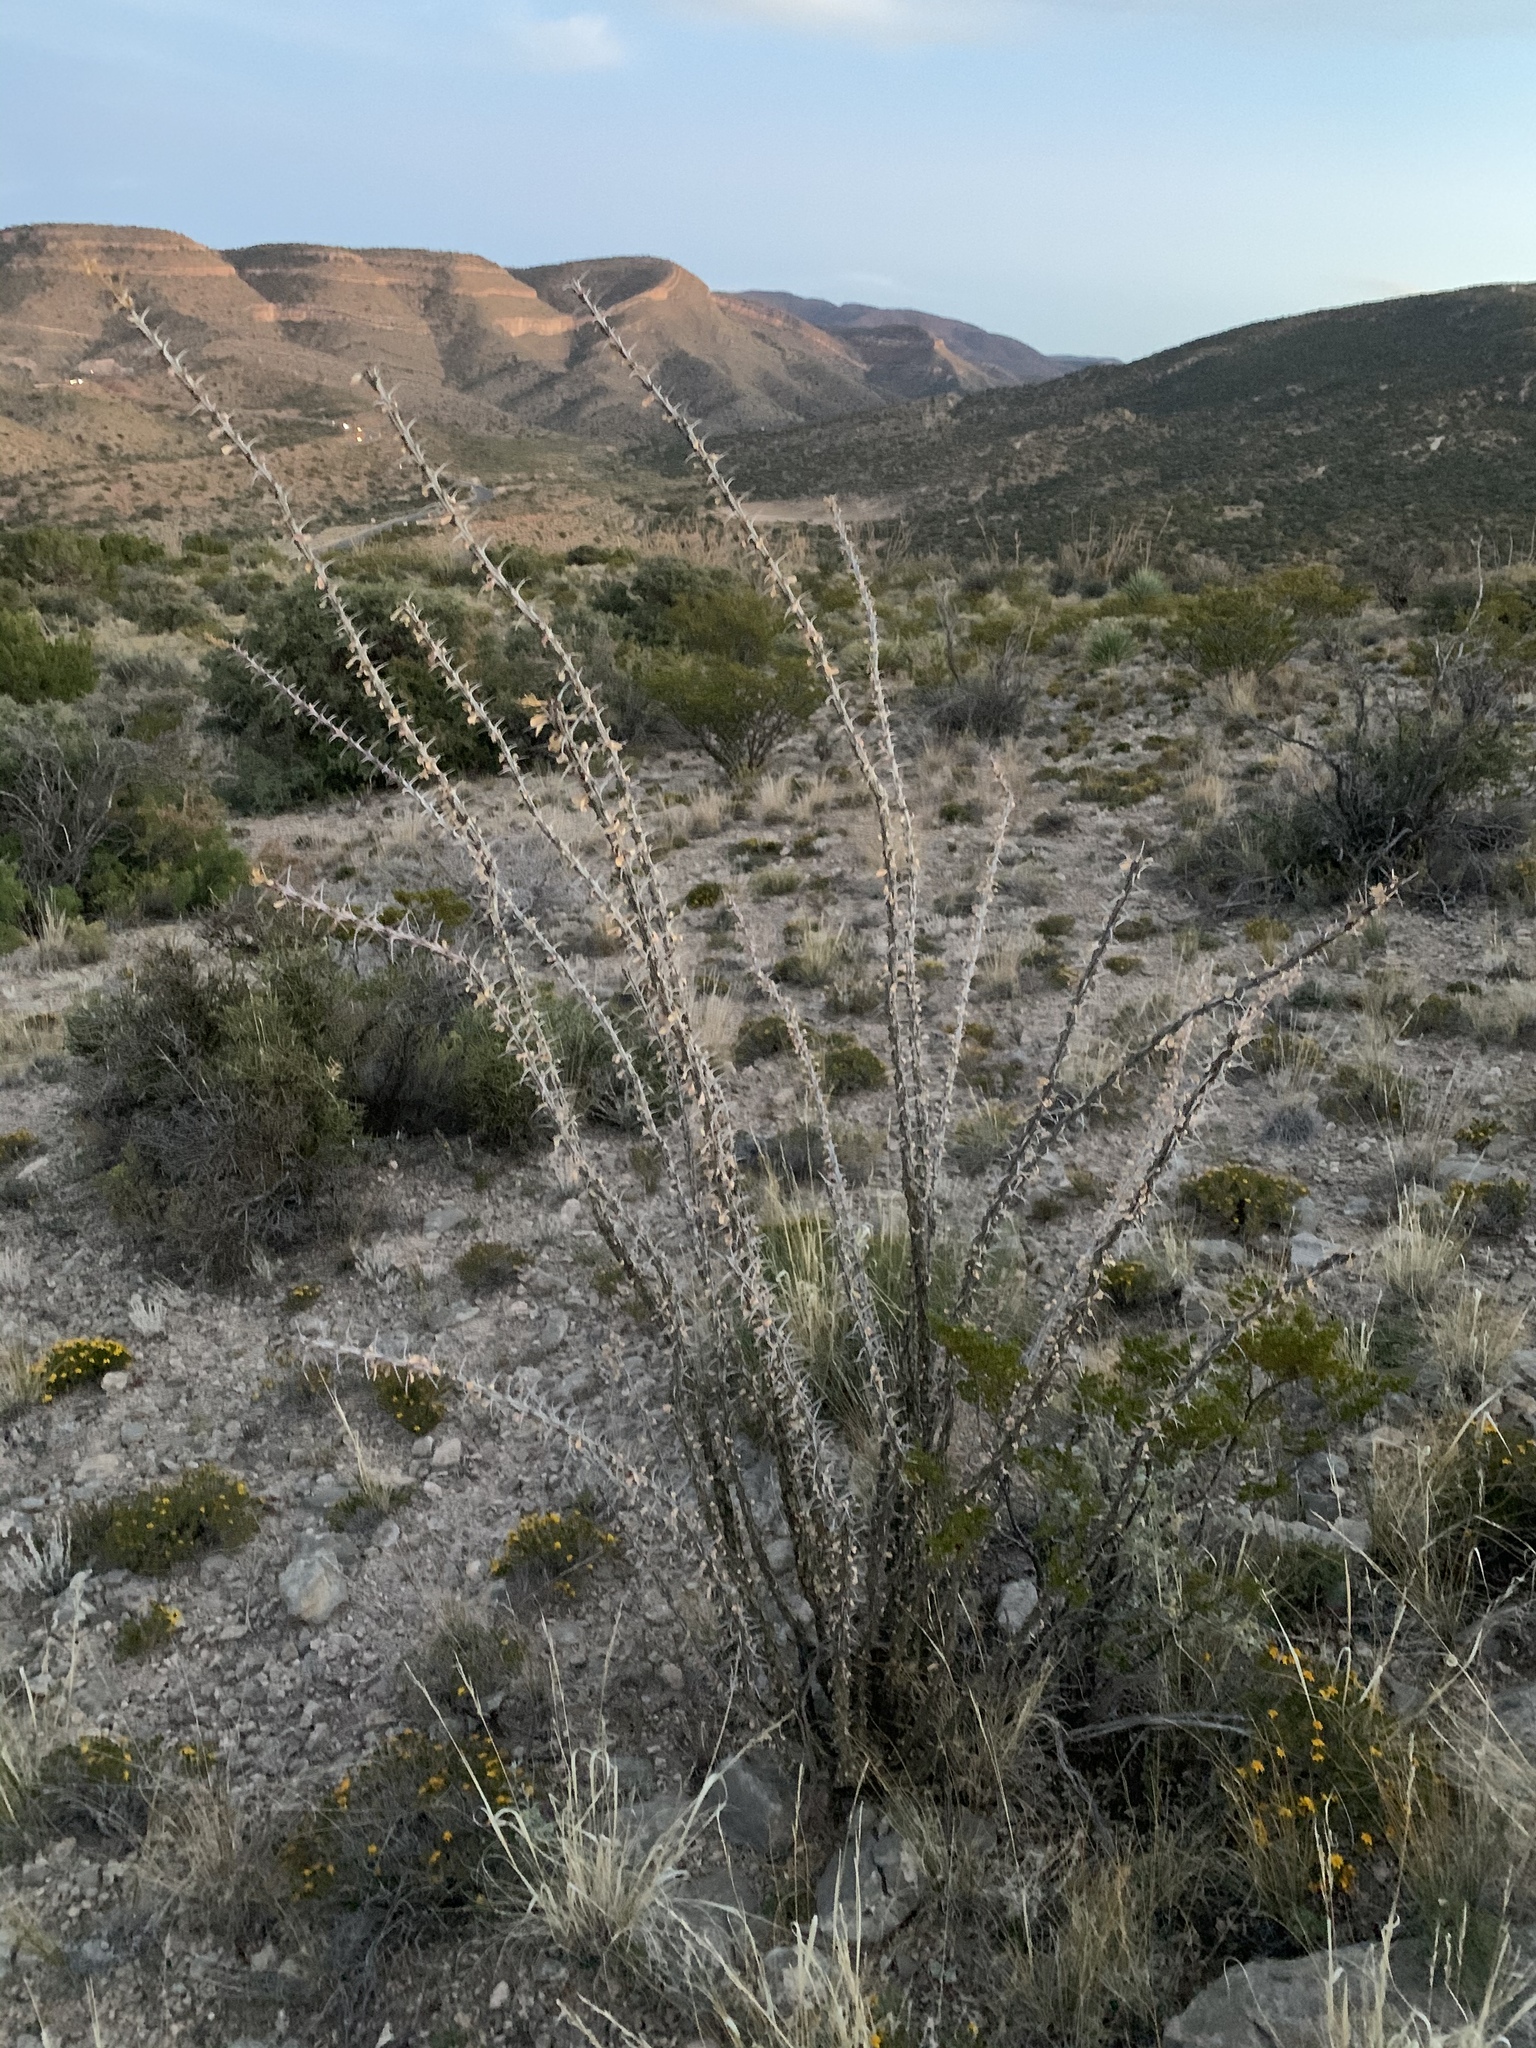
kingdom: Plantae
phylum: Tracheophyta
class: Magnoliopsida
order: Ericales
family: Fouquieriaceae
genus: Fouquieria
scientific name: Fouquieria splendens
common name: Vine-cactus
